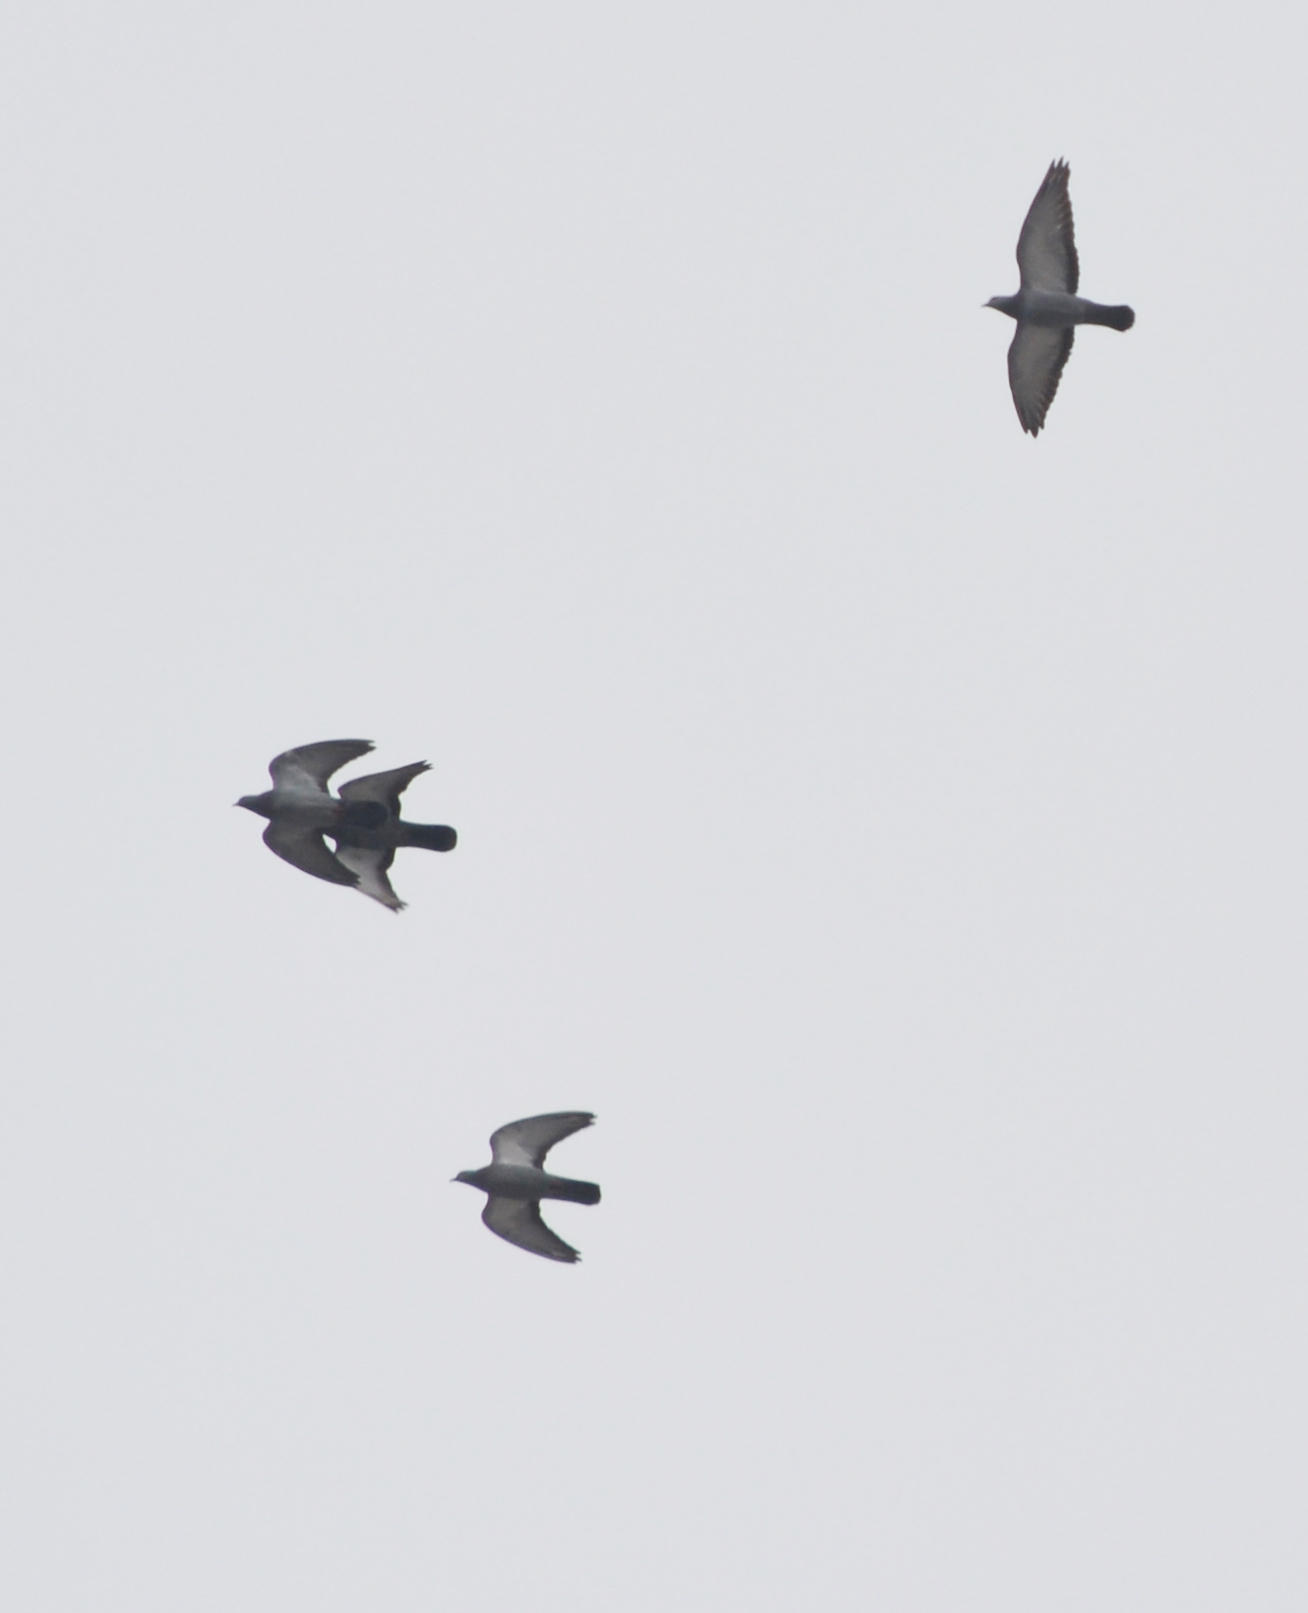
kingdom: Animalia
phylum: Chordata
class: Aves
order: Columbiformes
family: Columbidae
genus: Columba
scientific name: Columba livia
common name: Rock pigeon
